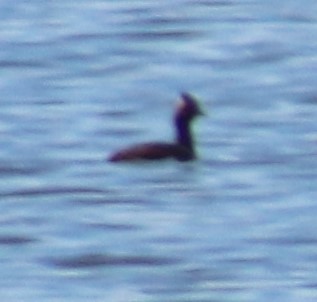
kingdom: Animalia
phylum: Chordata
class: Aves
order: Podicipediformes
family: Podicipedidae
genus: Podiceps
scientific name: Podiceps nigricollis
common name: Black-necked grebe
